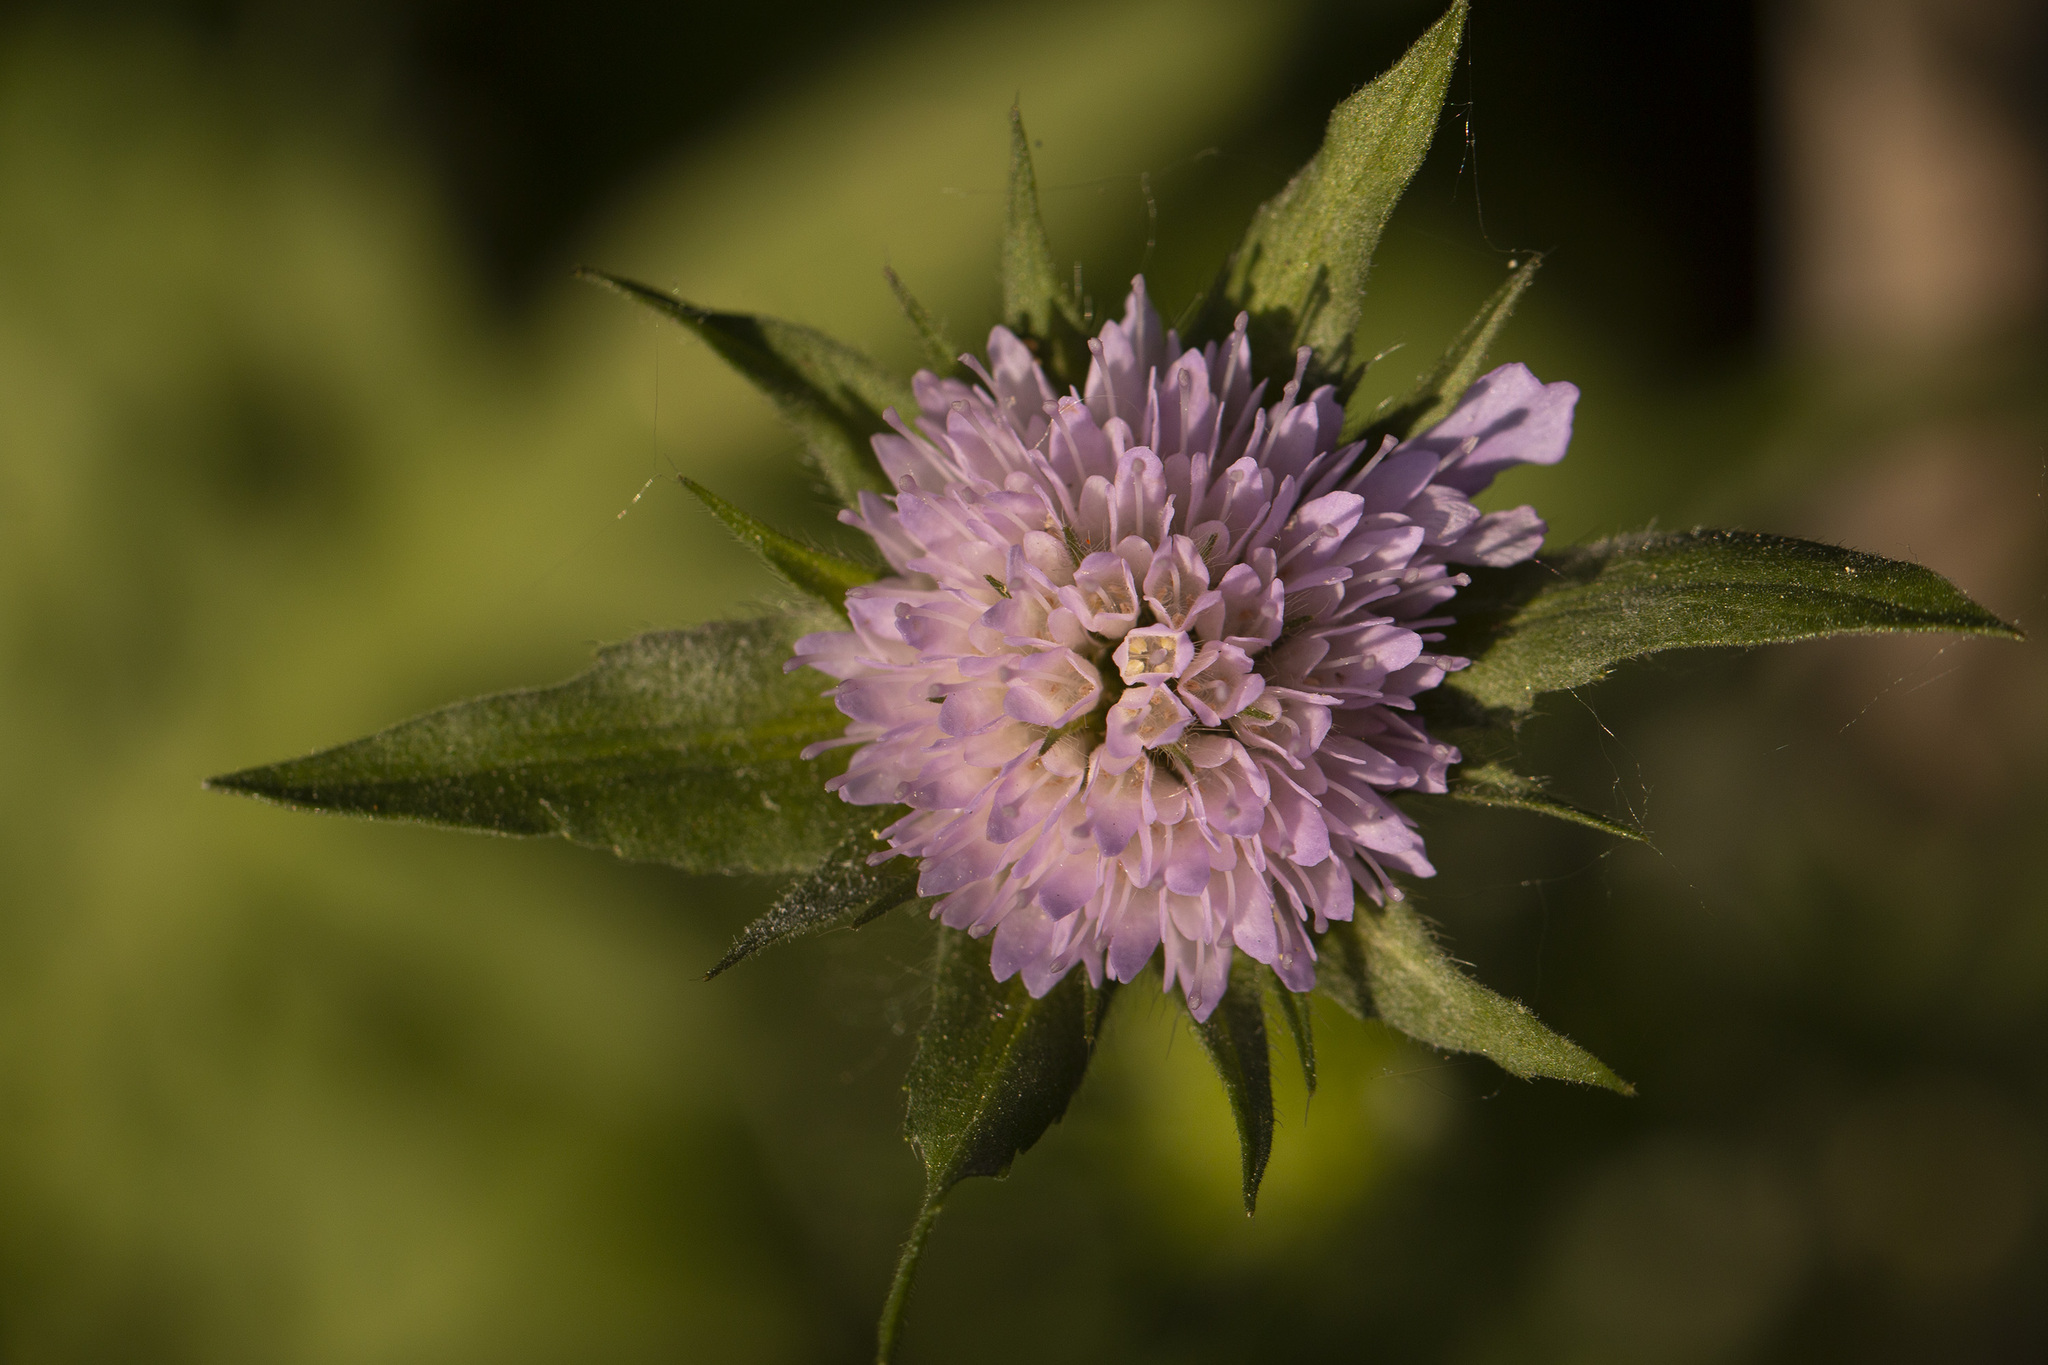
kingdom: Plantae
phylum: Tracheophyta
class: Magnoliopsida
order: Dipsacales
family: Caprifoliaceae
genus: Knautia
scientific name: Knautia arvensis
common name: Field scabiosa
